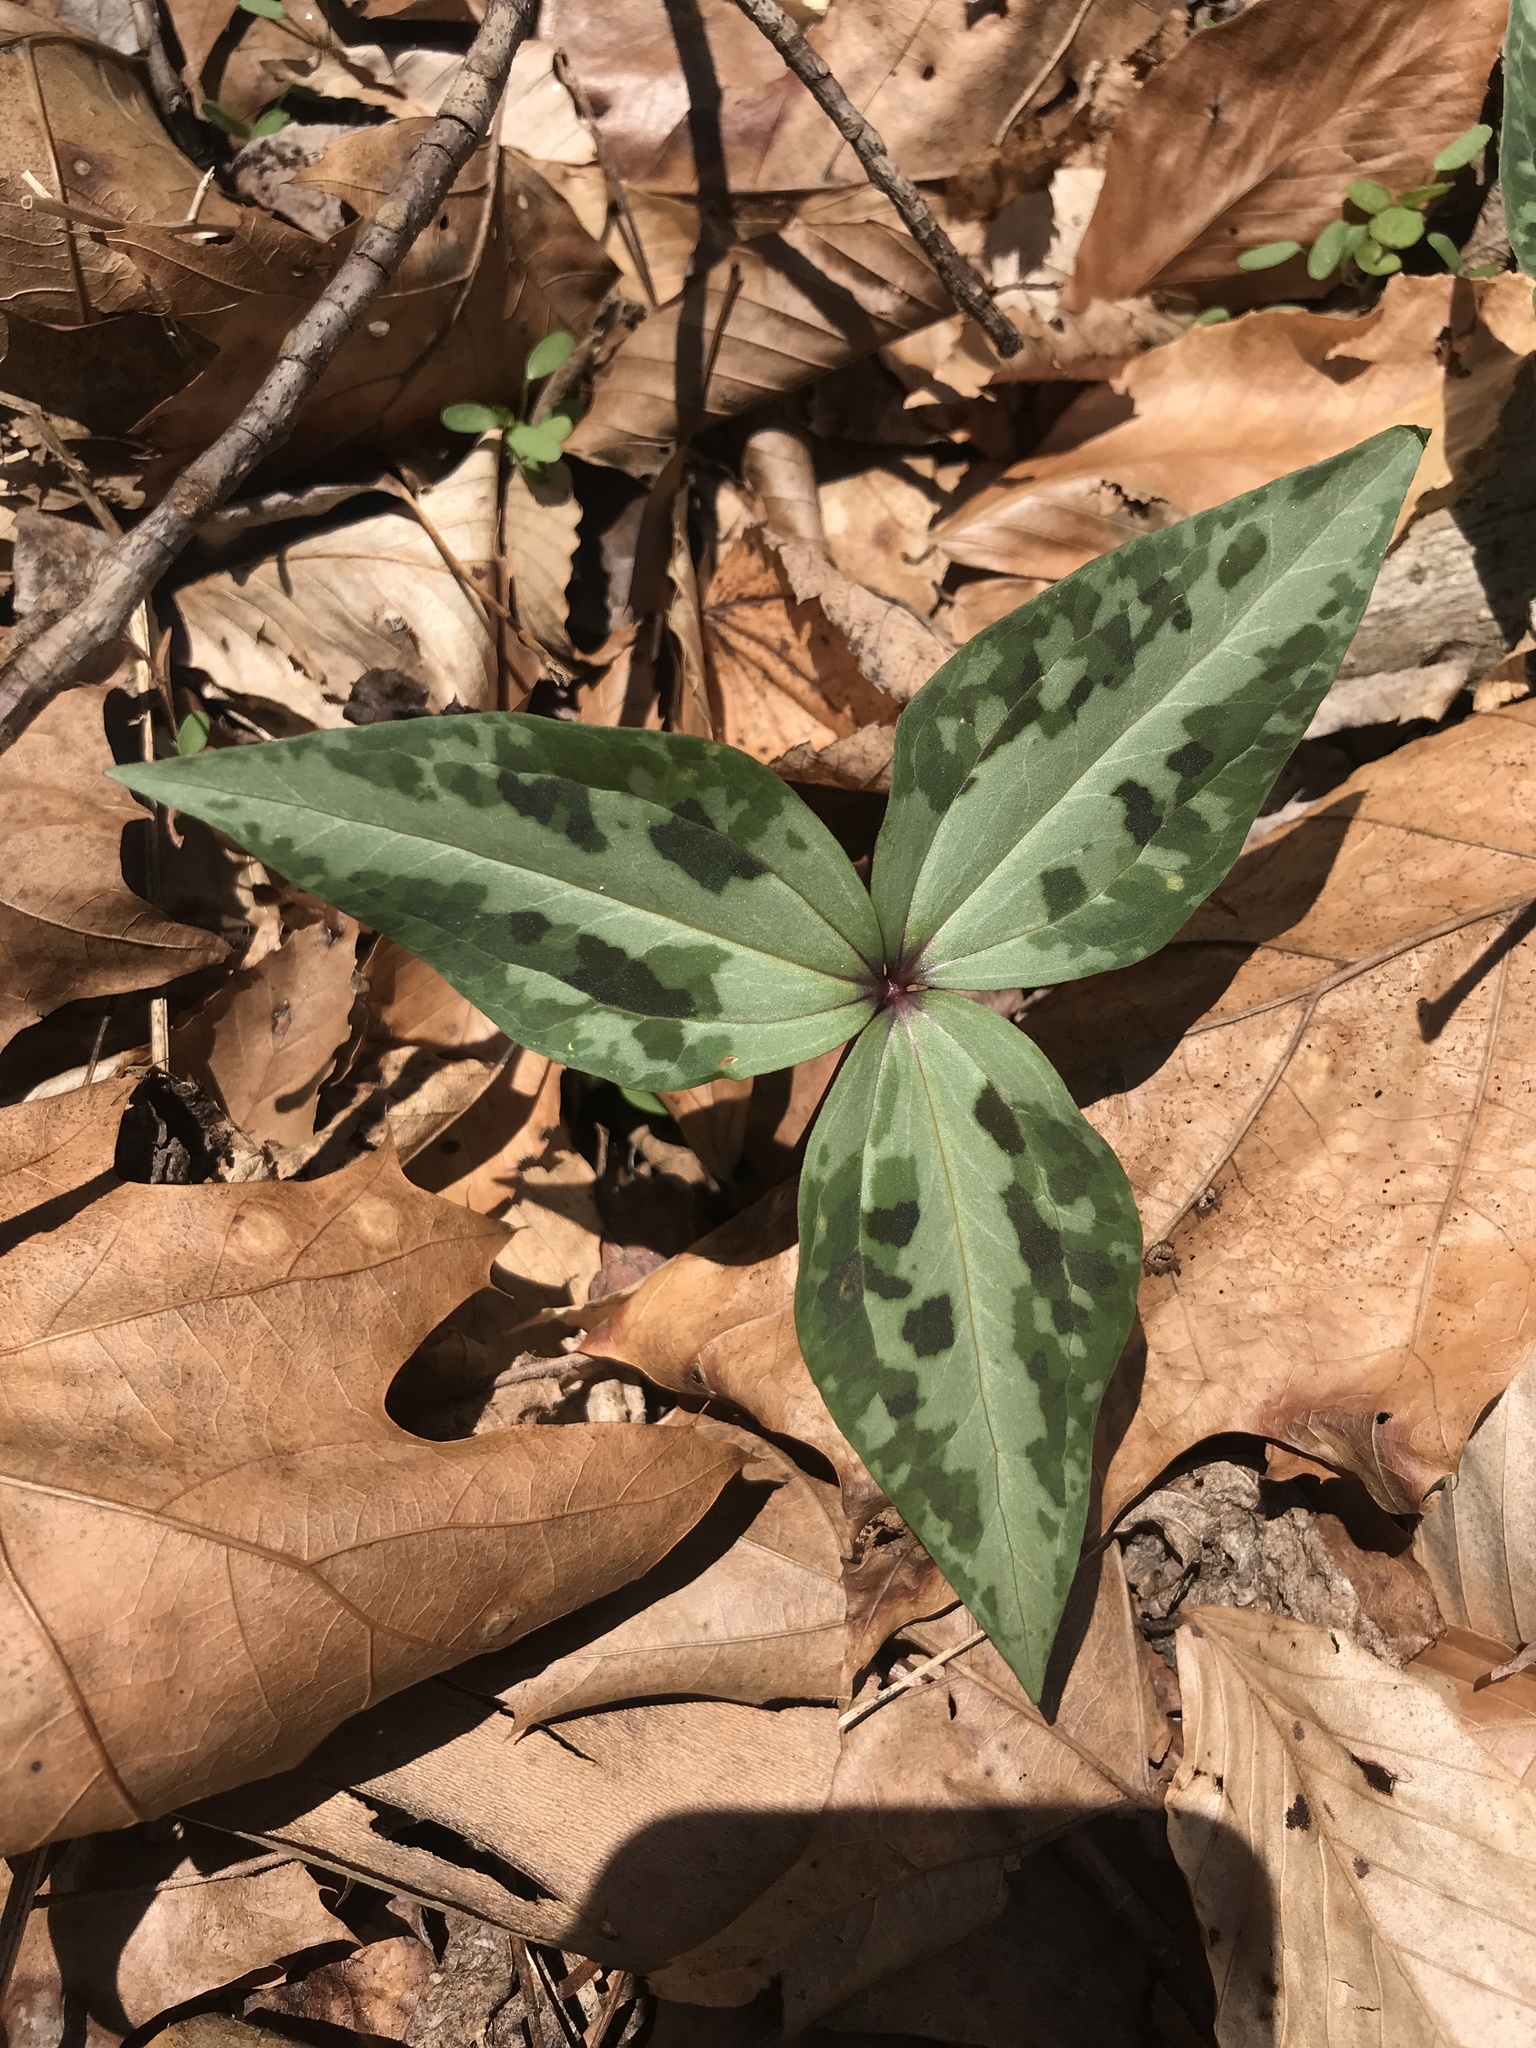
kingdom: Plantae
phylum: Tracheophyta
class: Liliopsida
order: Liliales
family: Melanthiaceae
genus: Trillium
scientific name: Trillium underwoodii
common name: Longbract wakerobin
